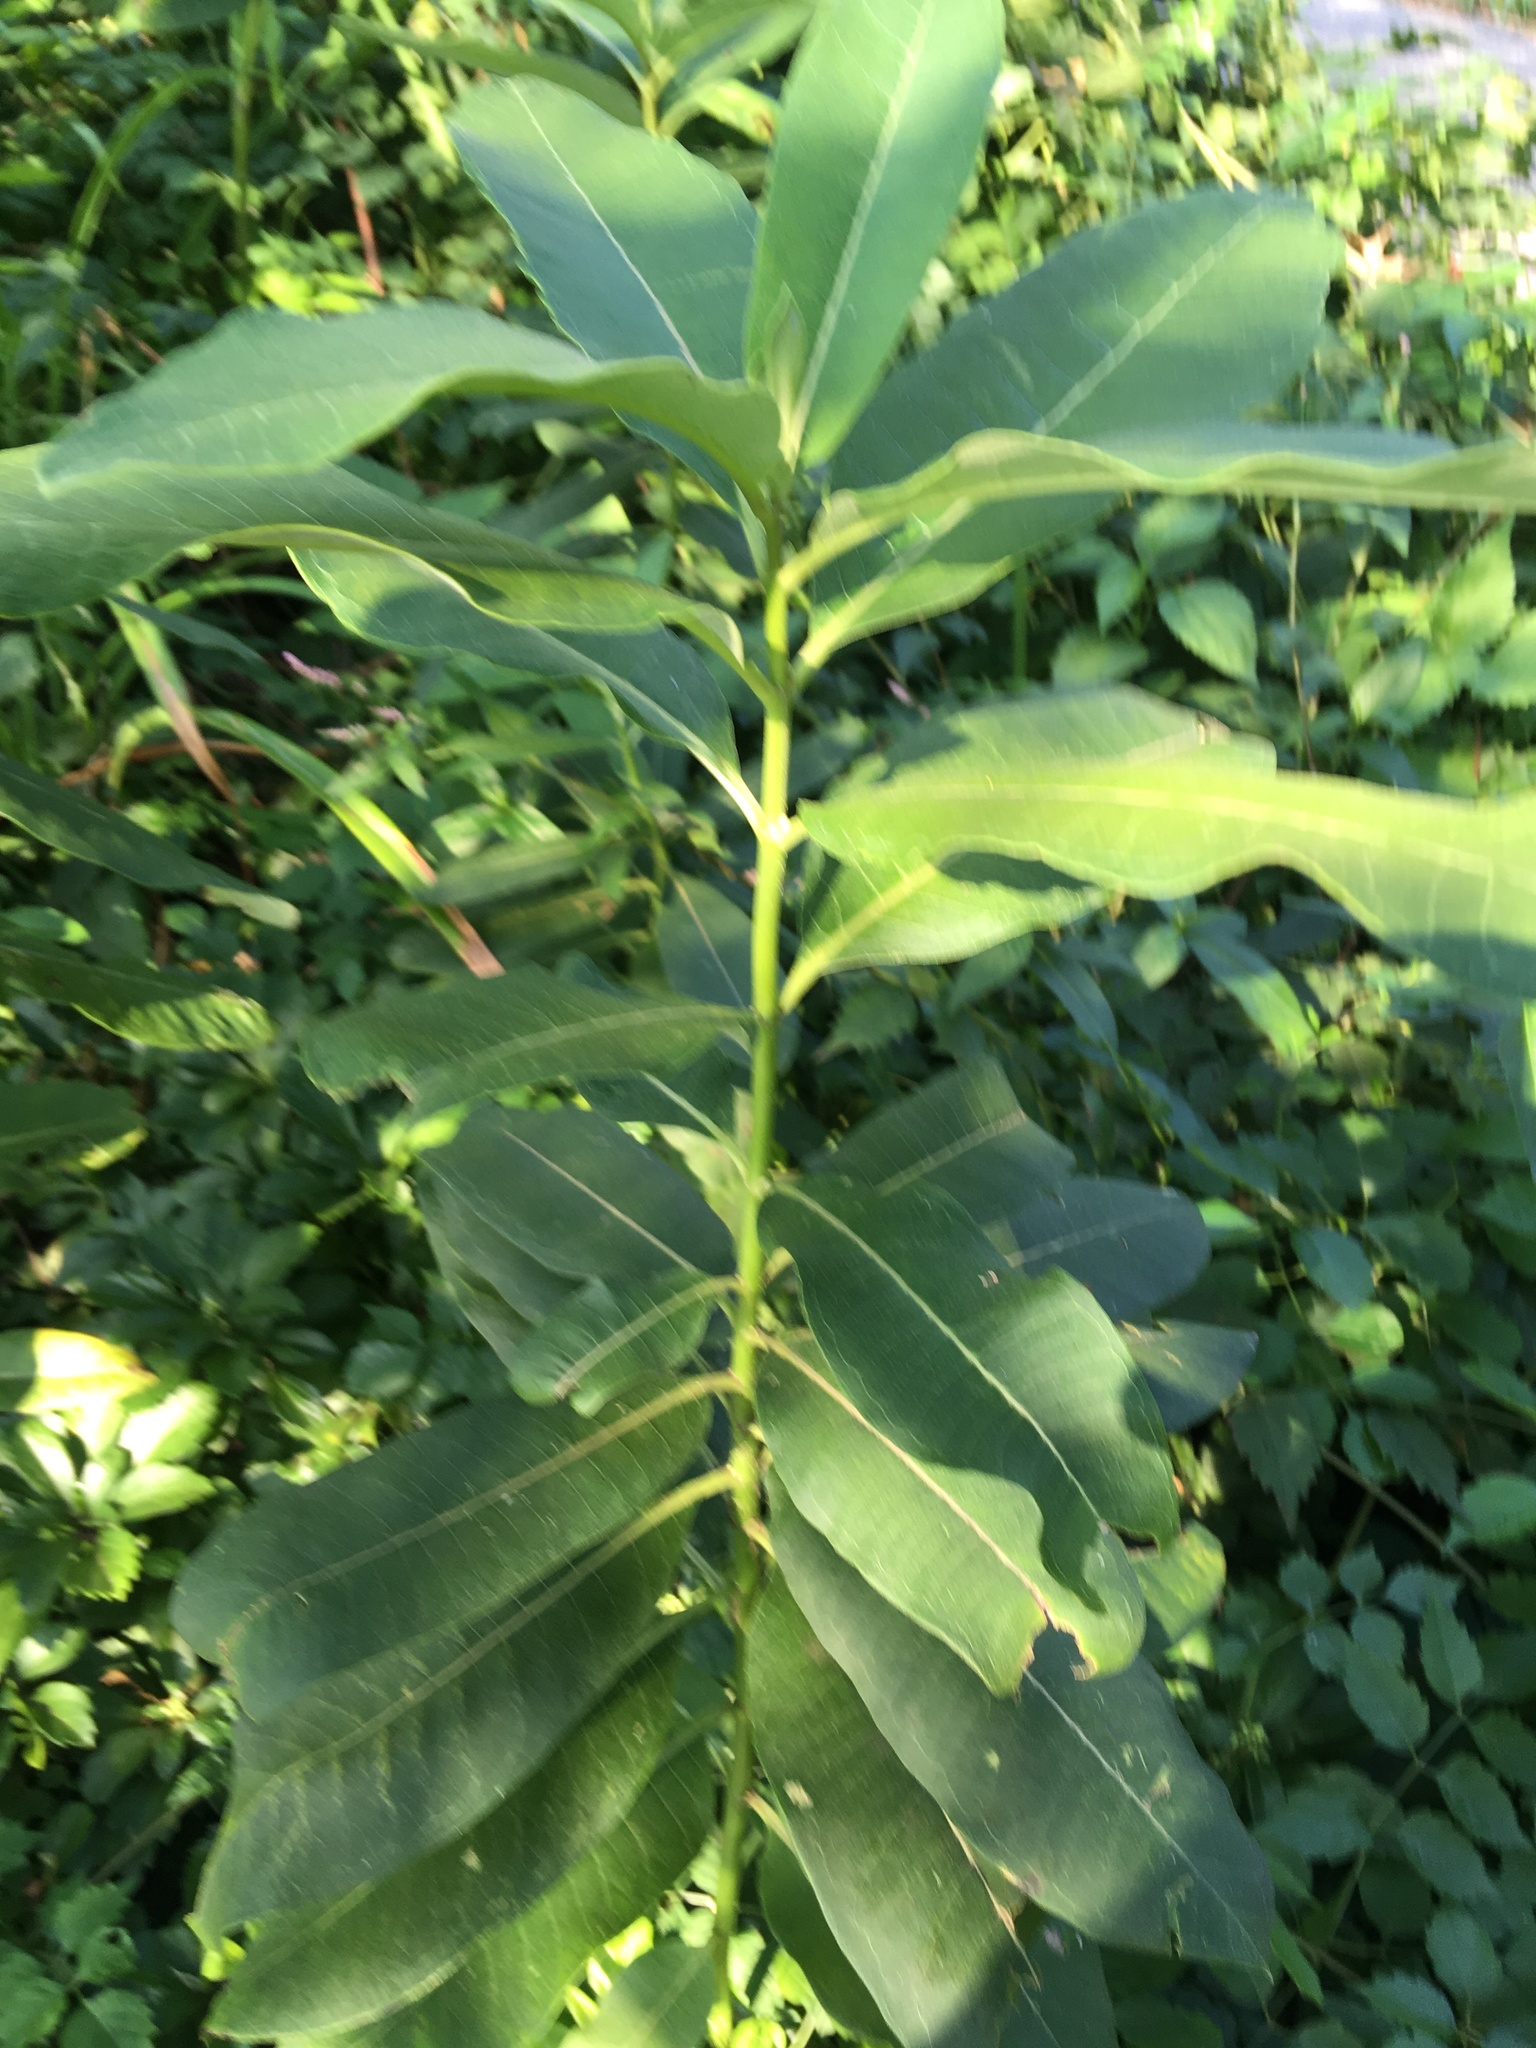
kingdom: Plantae
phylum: Tracheophyta
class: Magnoliopsida
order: Gentianales
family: Apocynaceae
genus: Asclepias
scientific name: Asclepias syriaca
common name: Common milkweed
